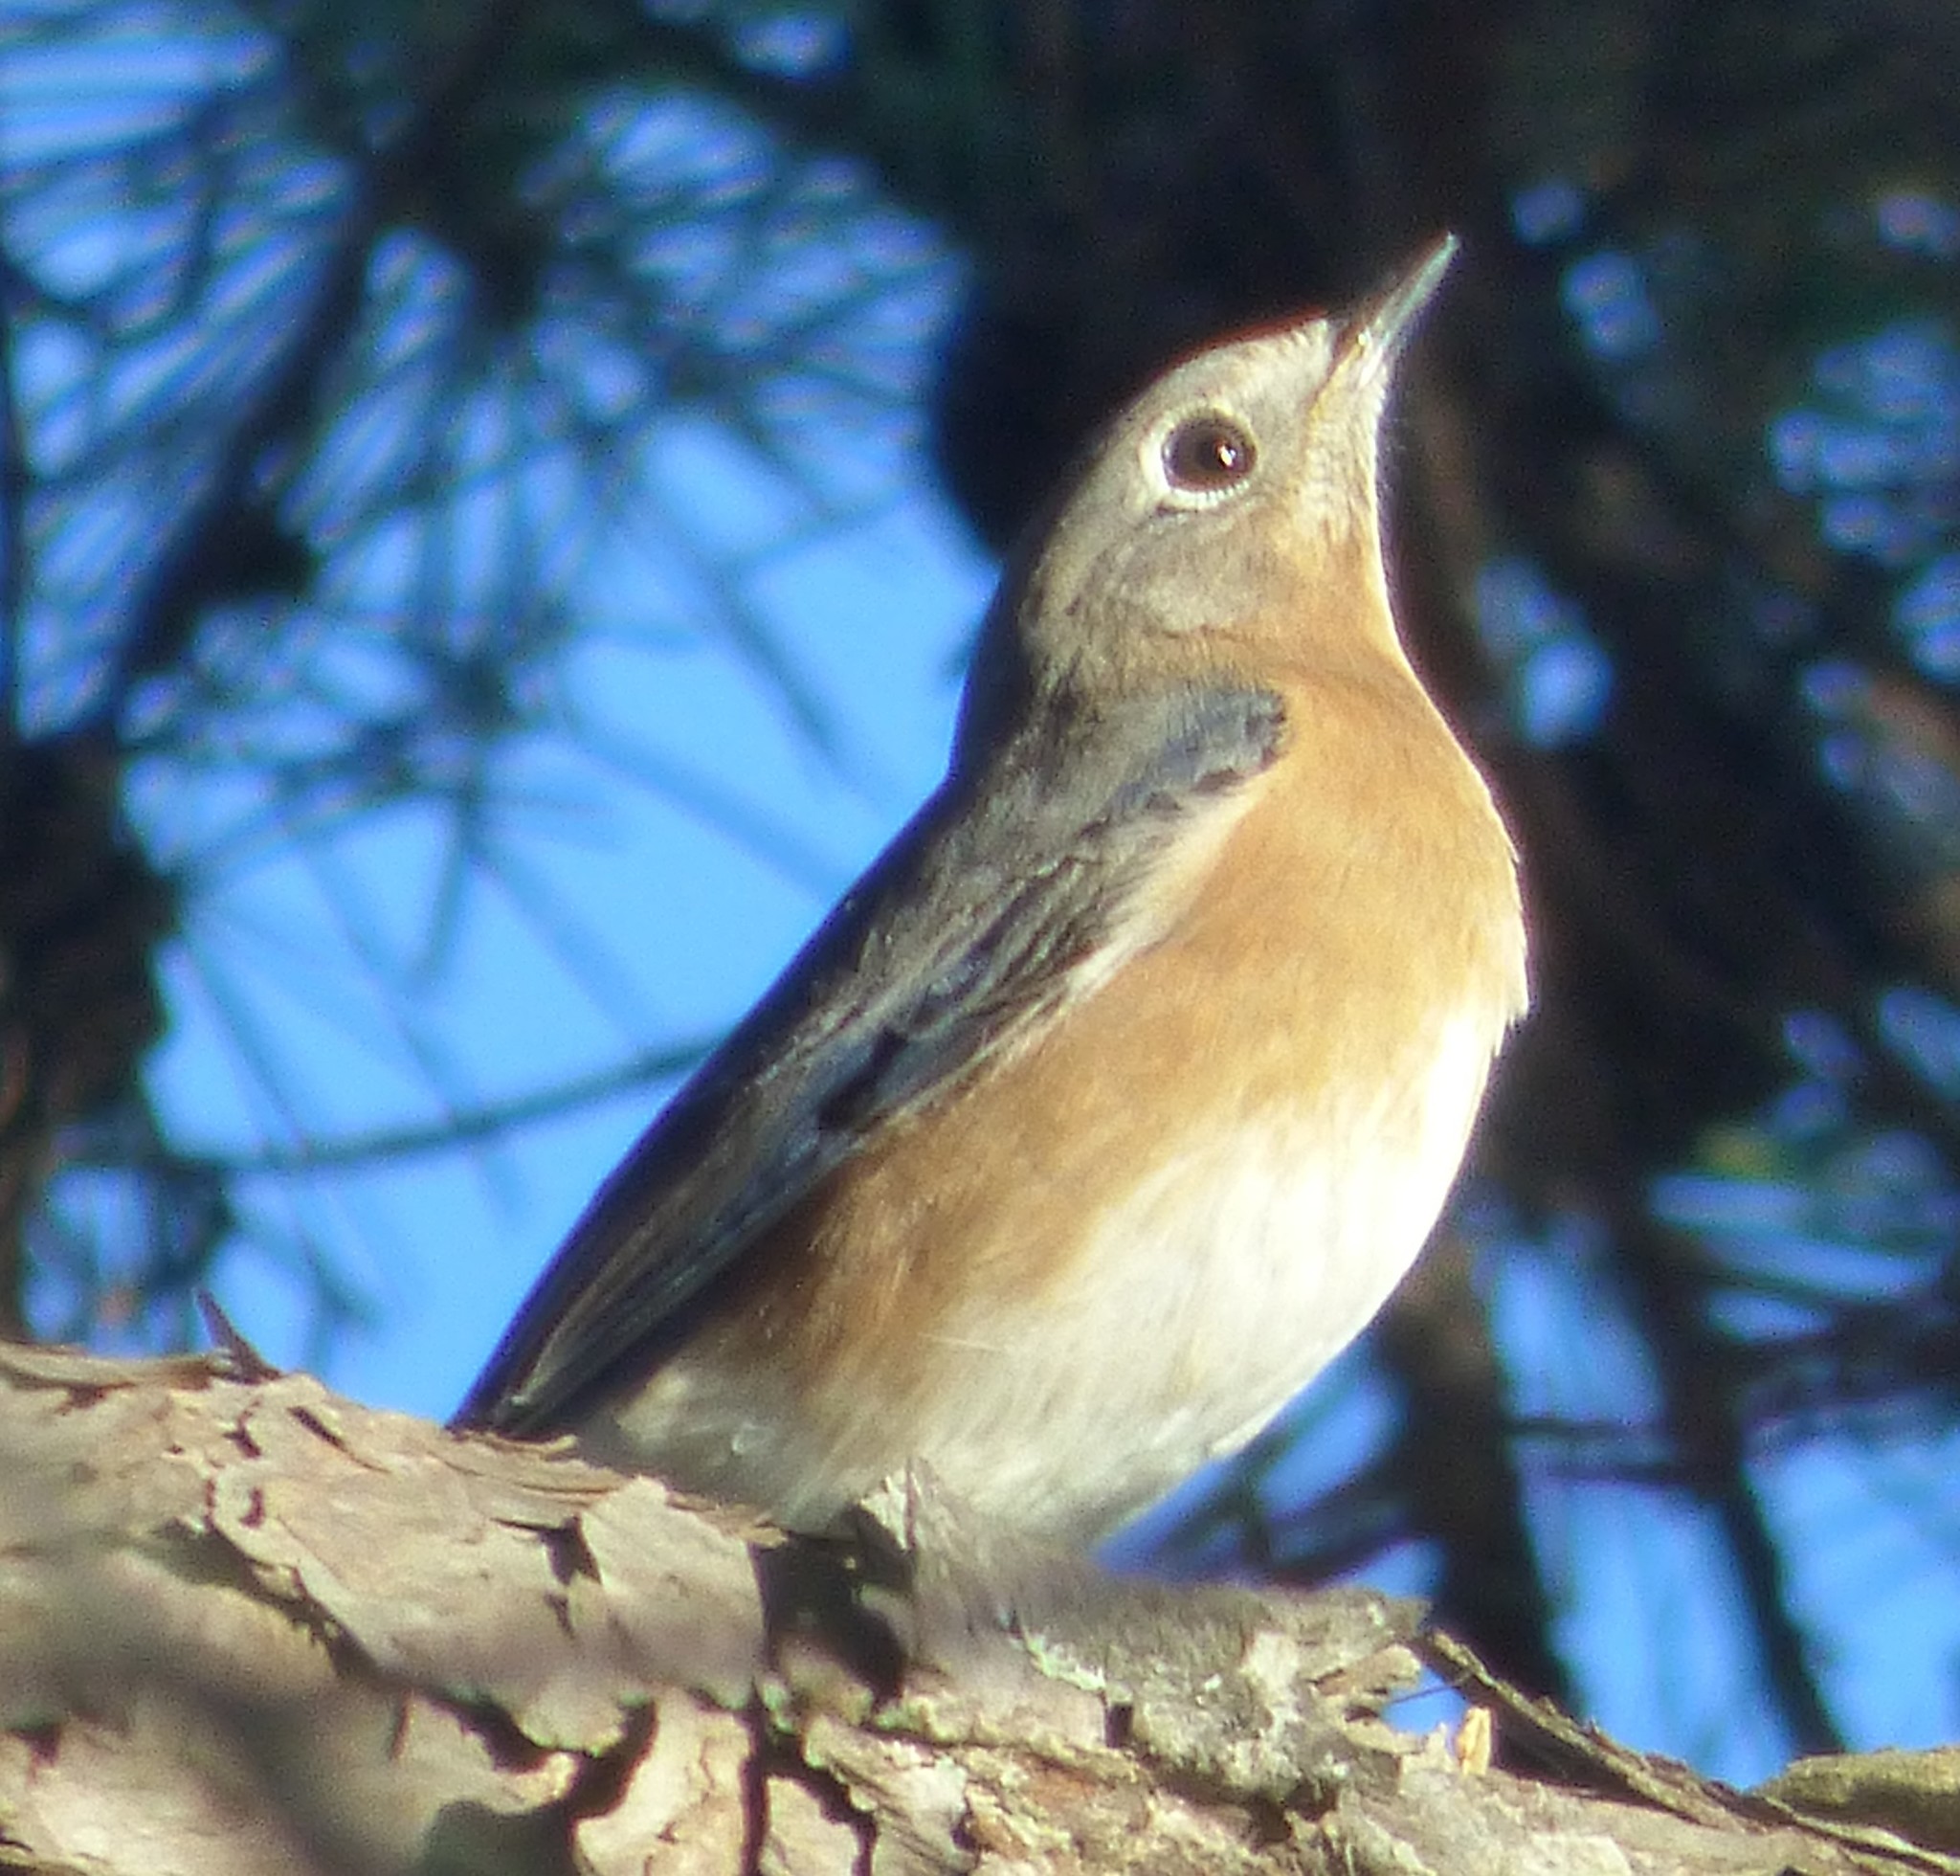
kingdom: Animalia
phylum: Chordata
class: Aves
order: Passeriformes
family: Turdidae
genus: Sialia
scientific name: Sialia sialis
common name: Eastern bluebird
